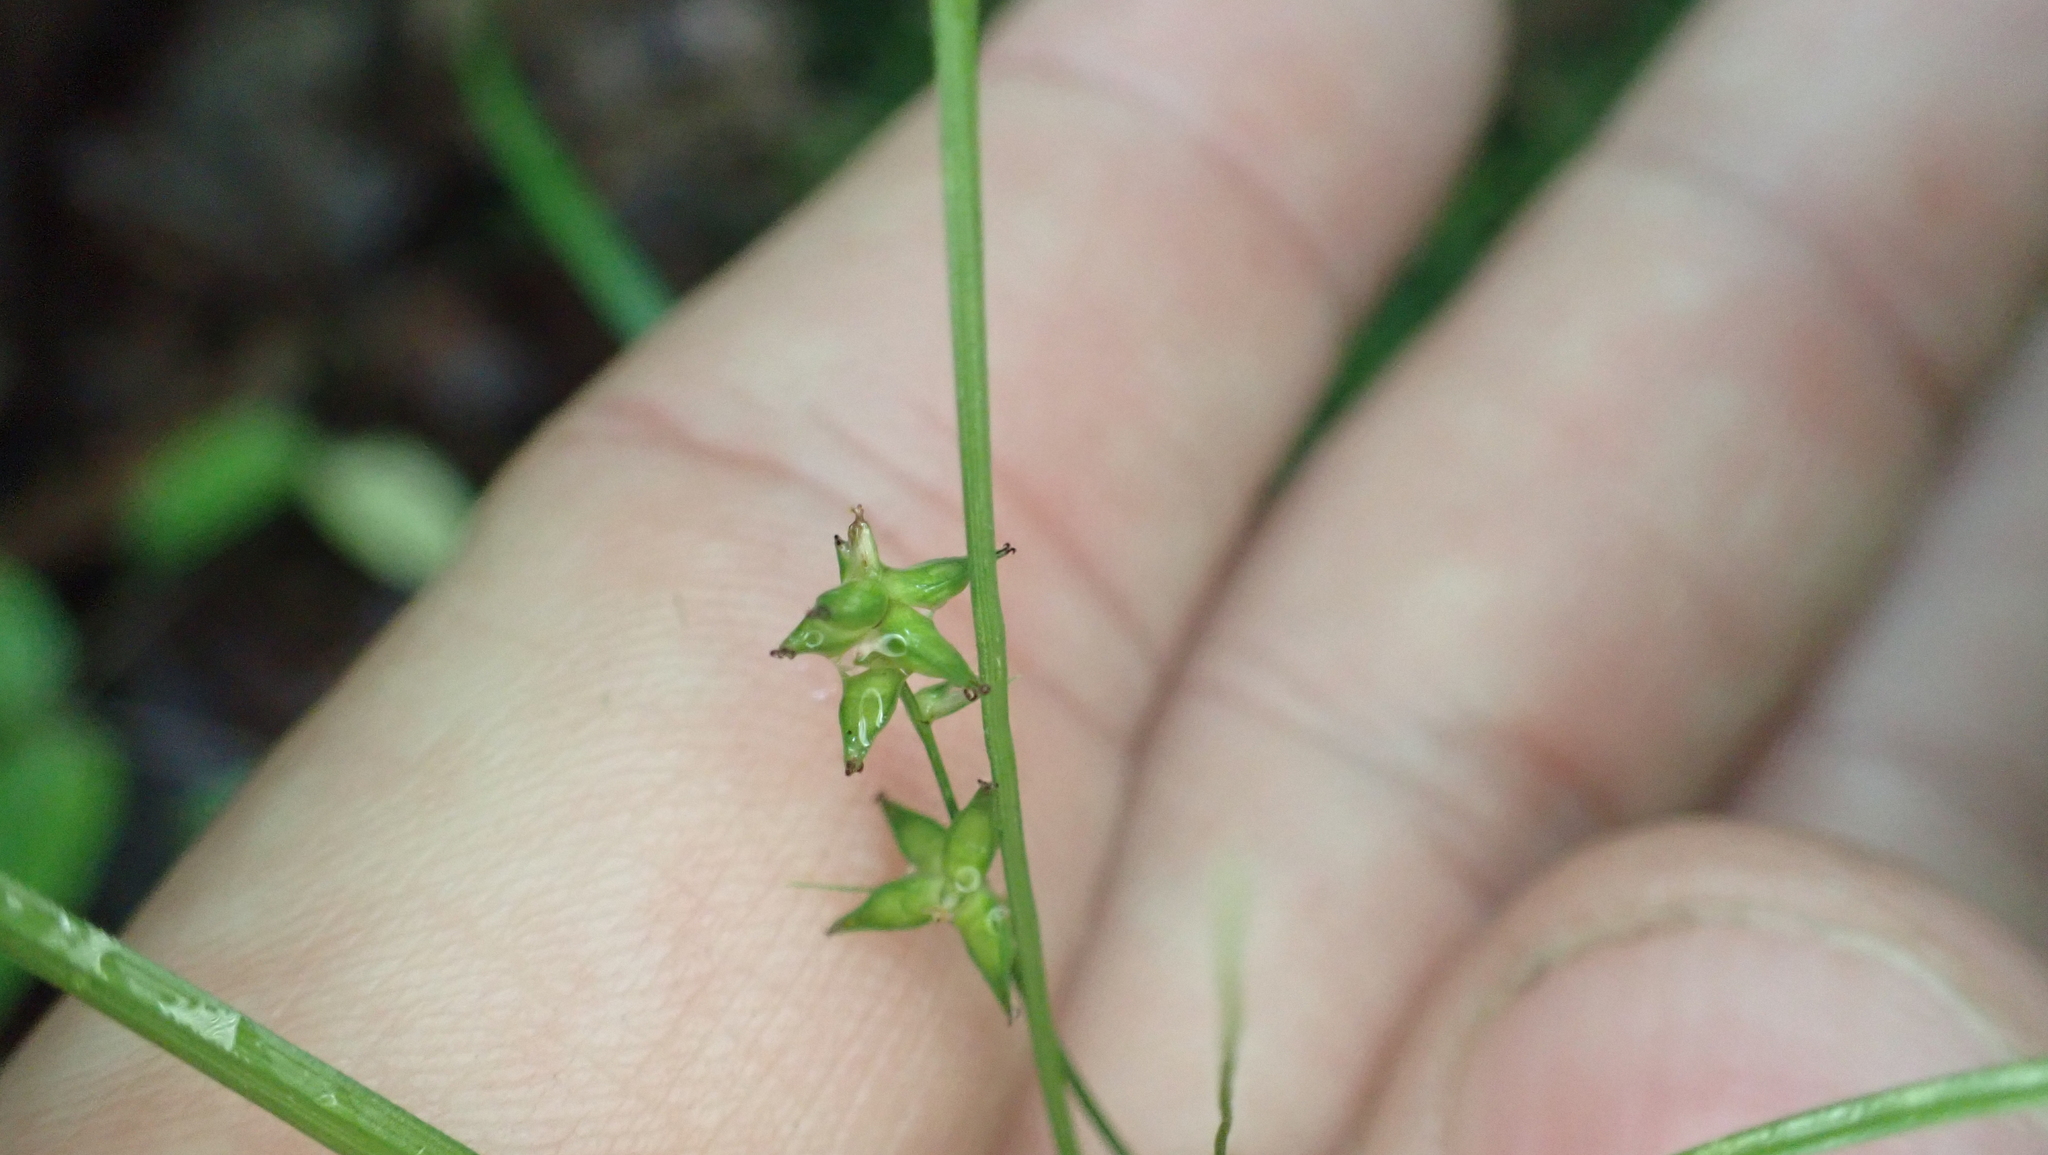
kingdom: Plantae
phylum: Tracheophyta
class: Liliopsida
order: Poales
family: Cyperaceae
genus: Carex
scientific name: Carex rosea
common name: Curly-styled wood sedge
